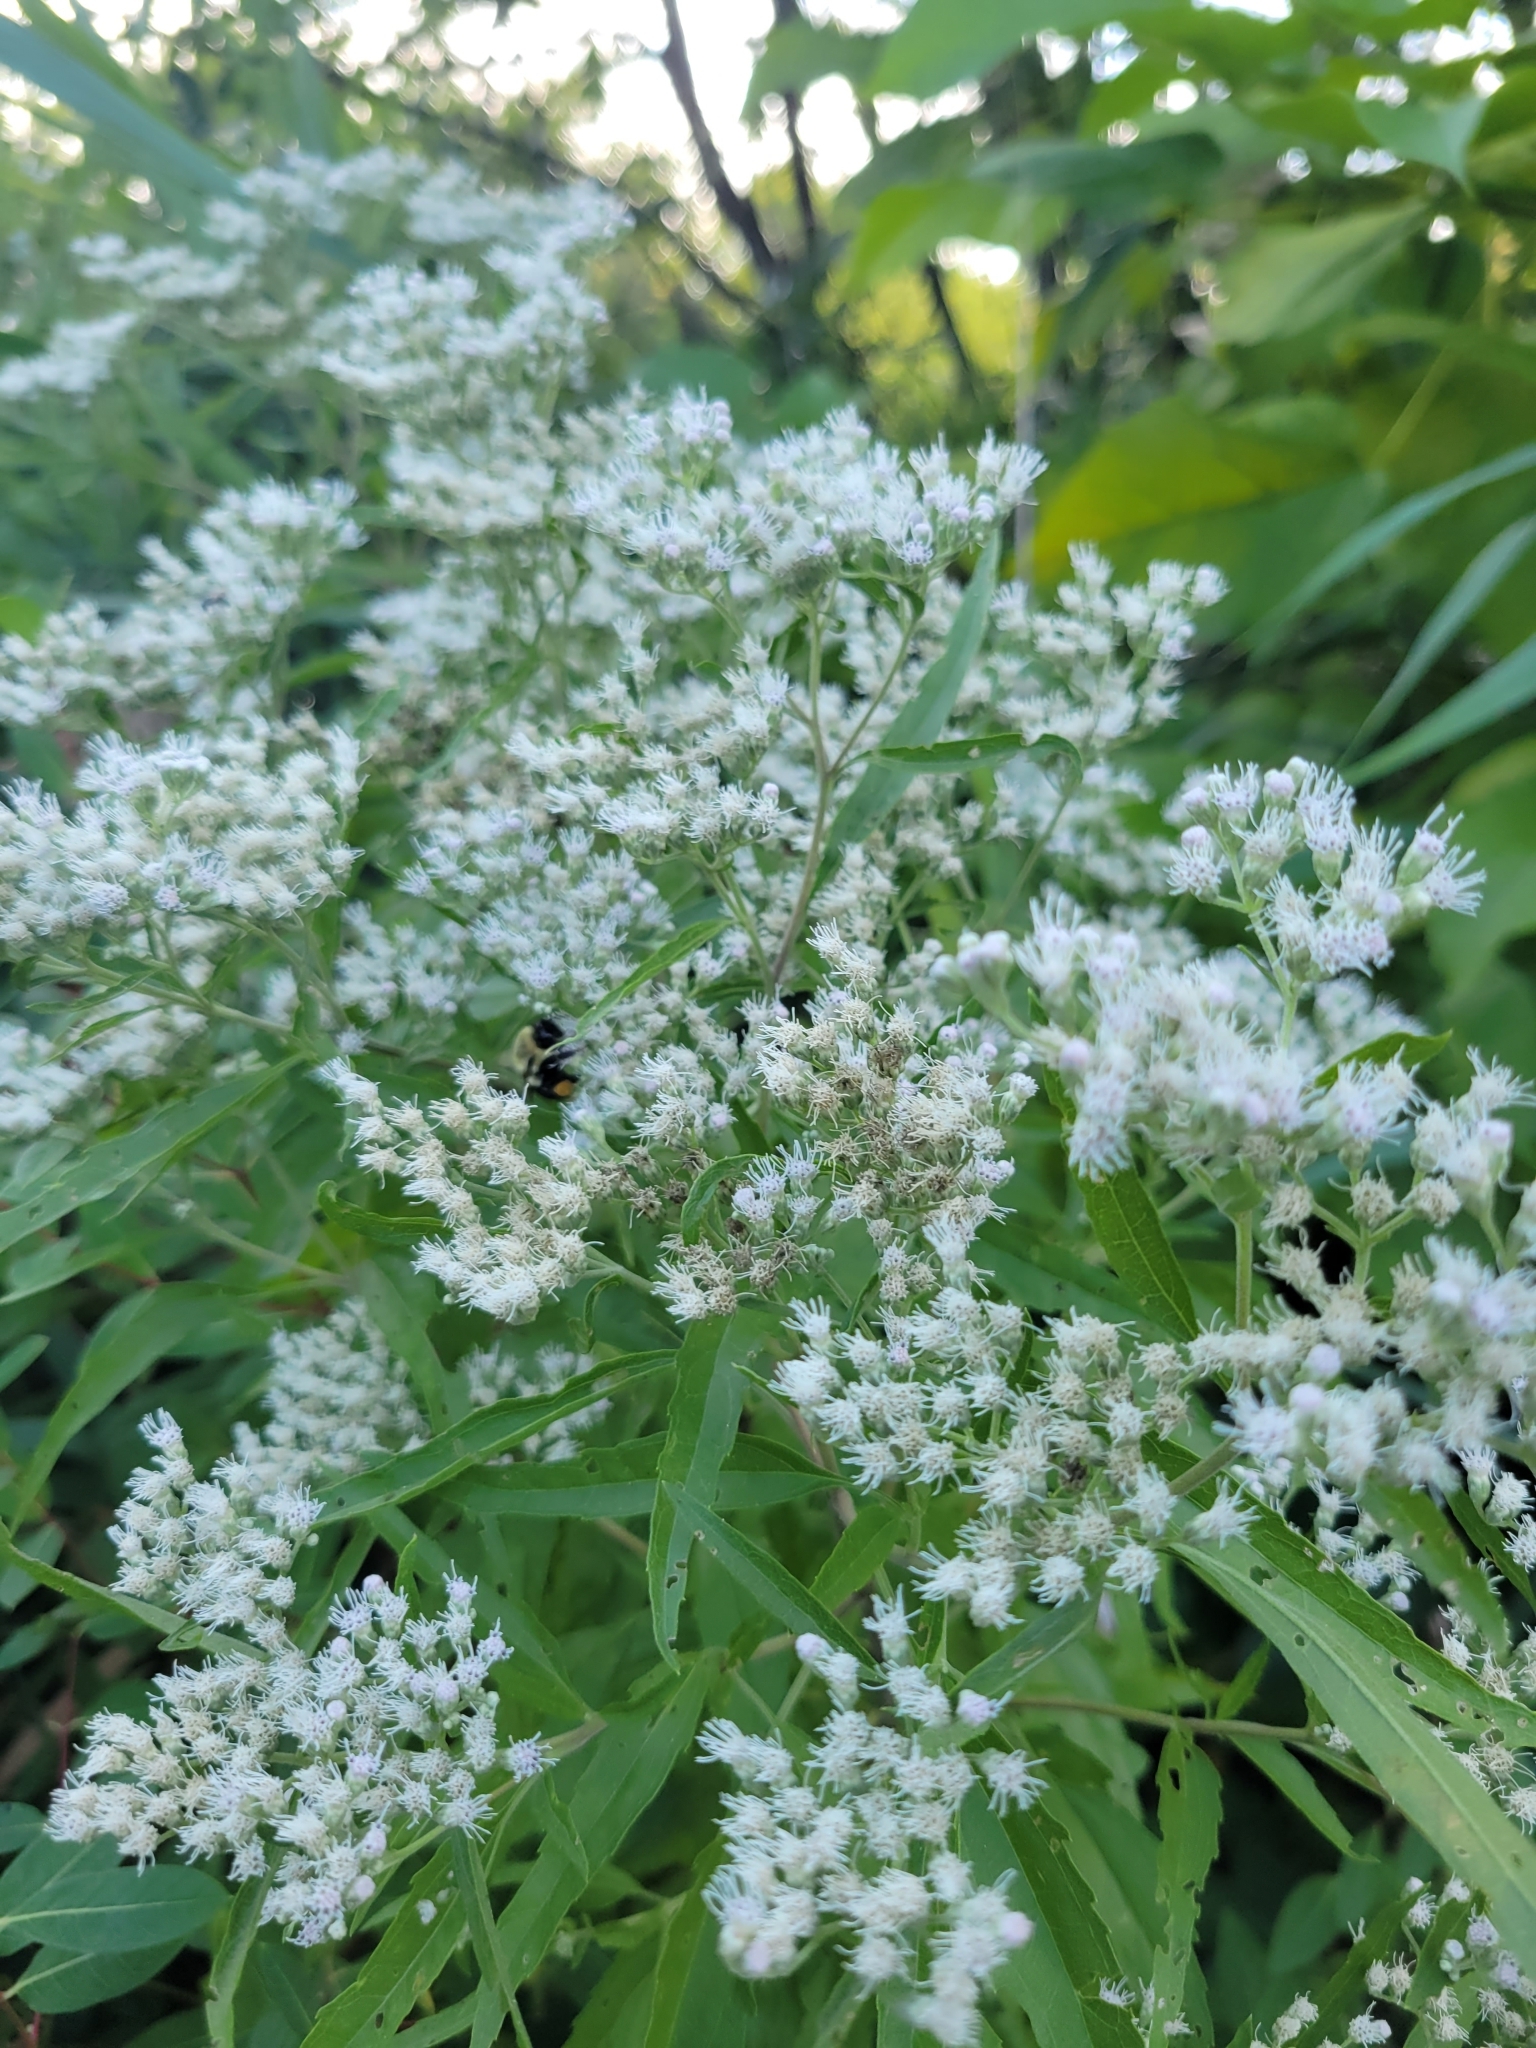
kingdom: Plantae
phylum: Tracheophyta
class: Magnoliopsida
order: Asterales
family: Asteraceae
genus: Eupatorium
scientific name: Eupatorium serotinum
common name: Late boneset
